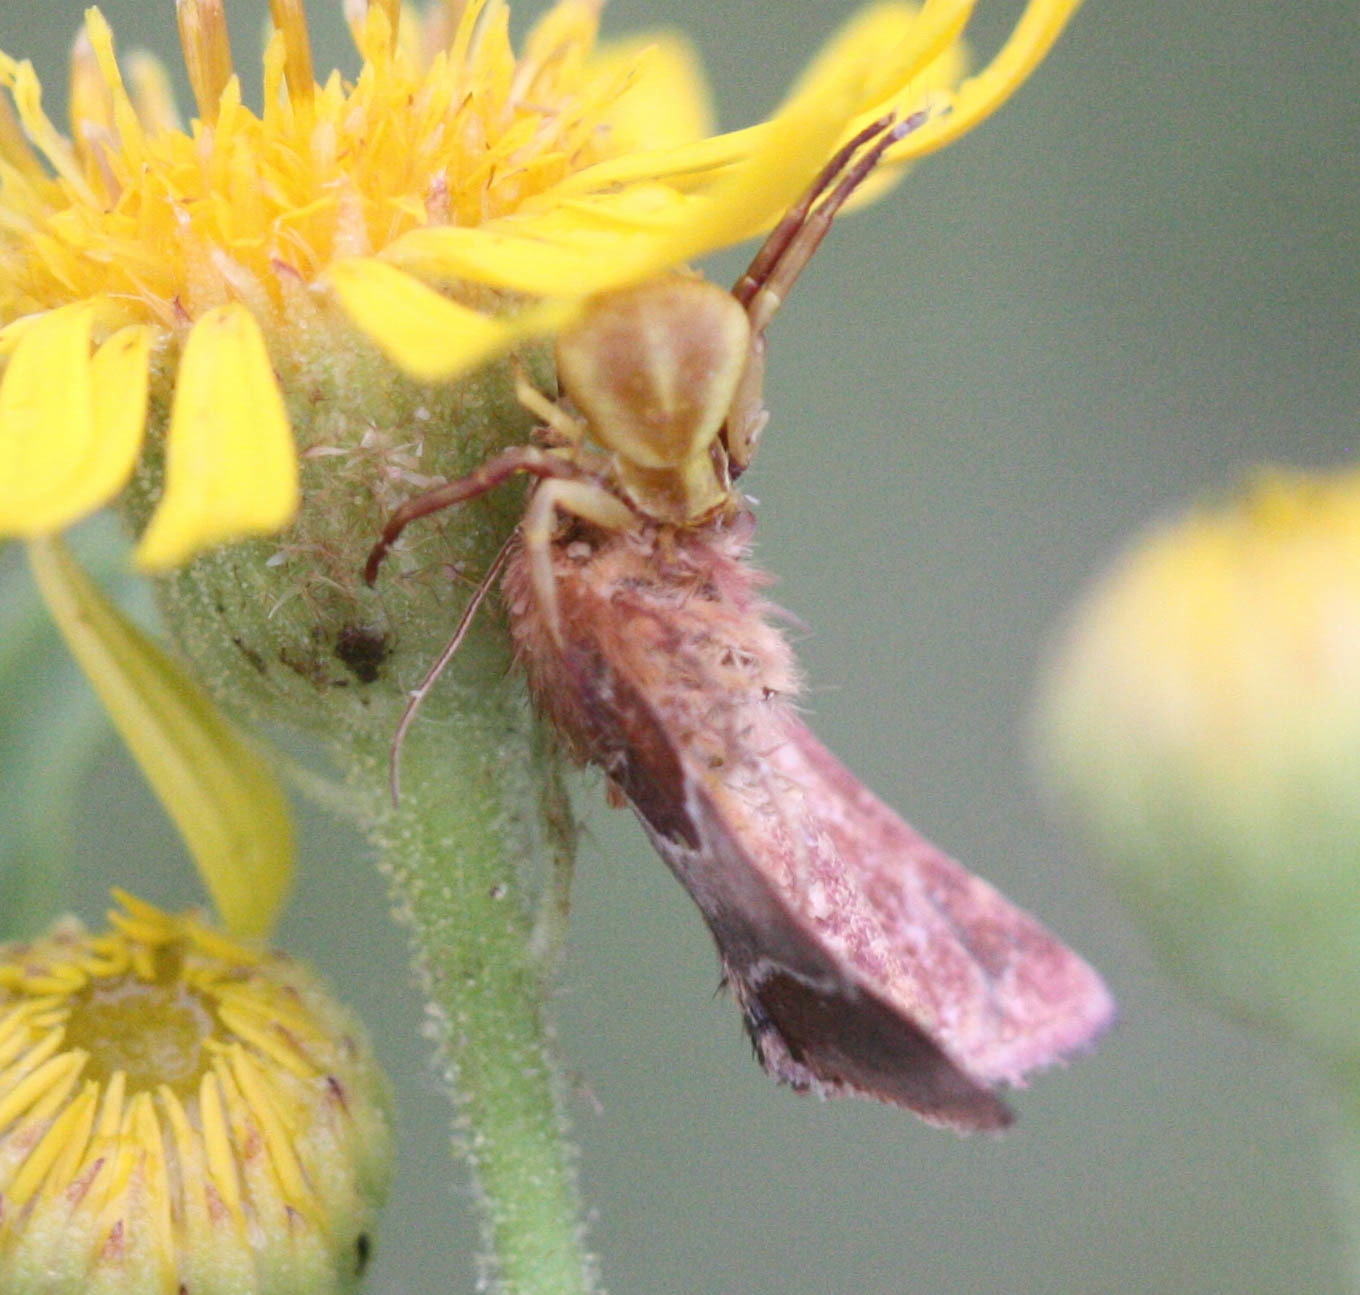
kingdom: Animalia
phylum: Arthropoda
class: Arachnida
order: Araneae
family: Thomisidae
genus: Misumenoides
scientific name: Misumenoides formosipes
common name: White-banded crab spider
